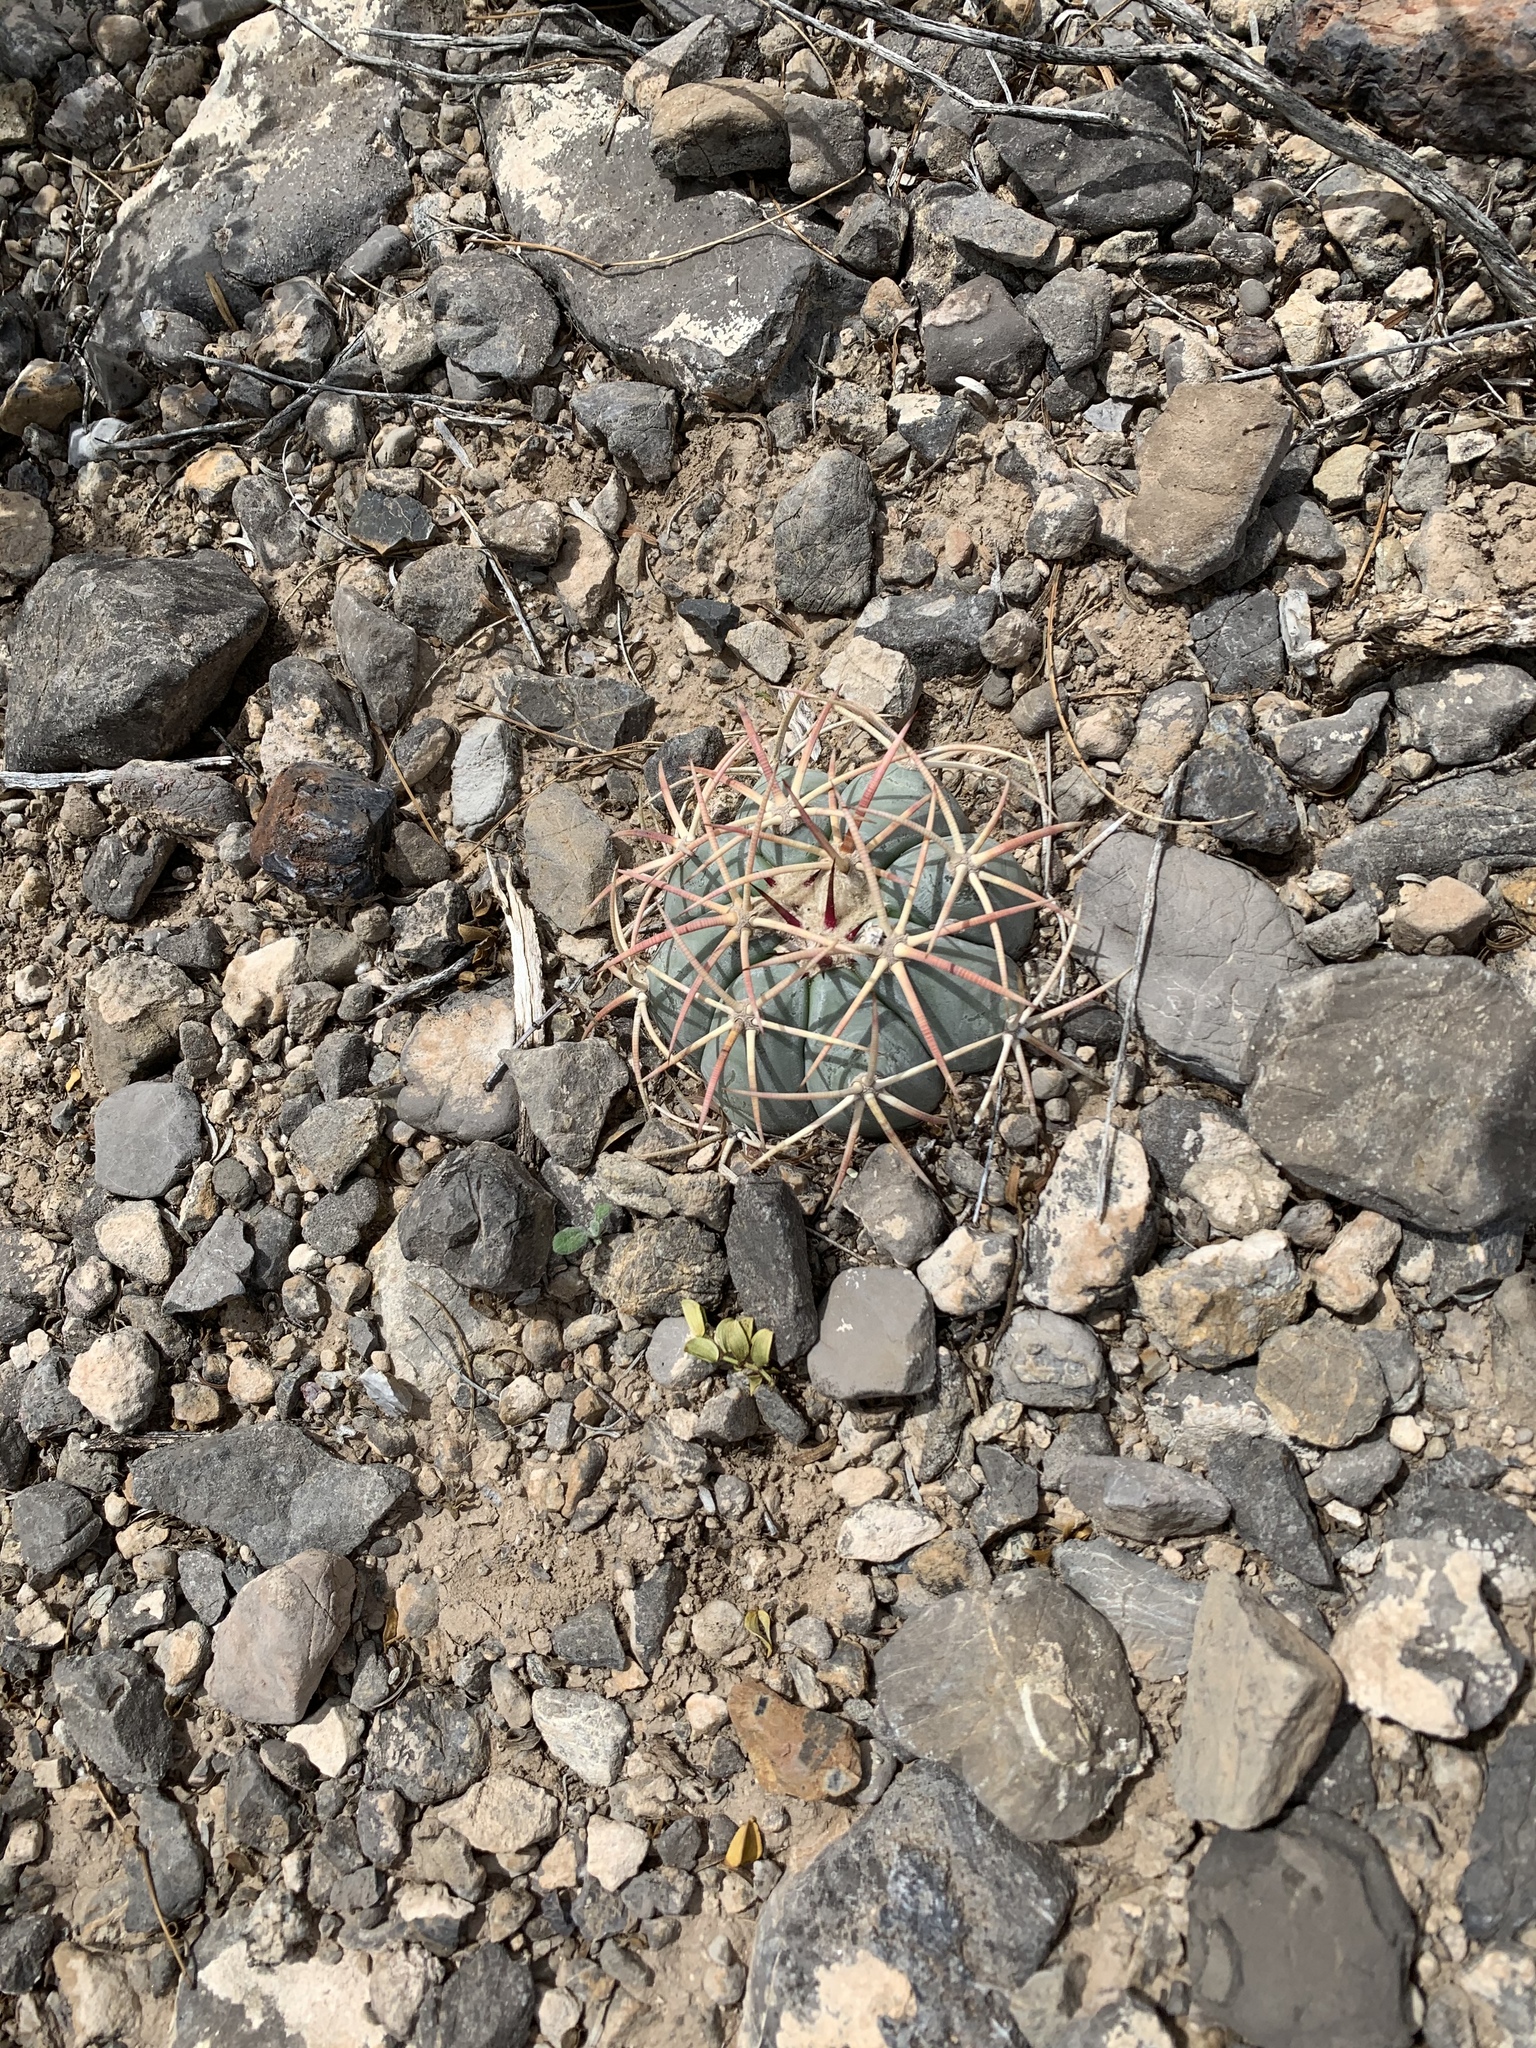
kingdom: Plantae
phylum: Tracheophyta
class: Magnoliopsida
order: Caryophyllales
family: Cactaceae
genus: Echinocactus
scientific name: Echinocactus horizonthalonius
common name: Devilshead
